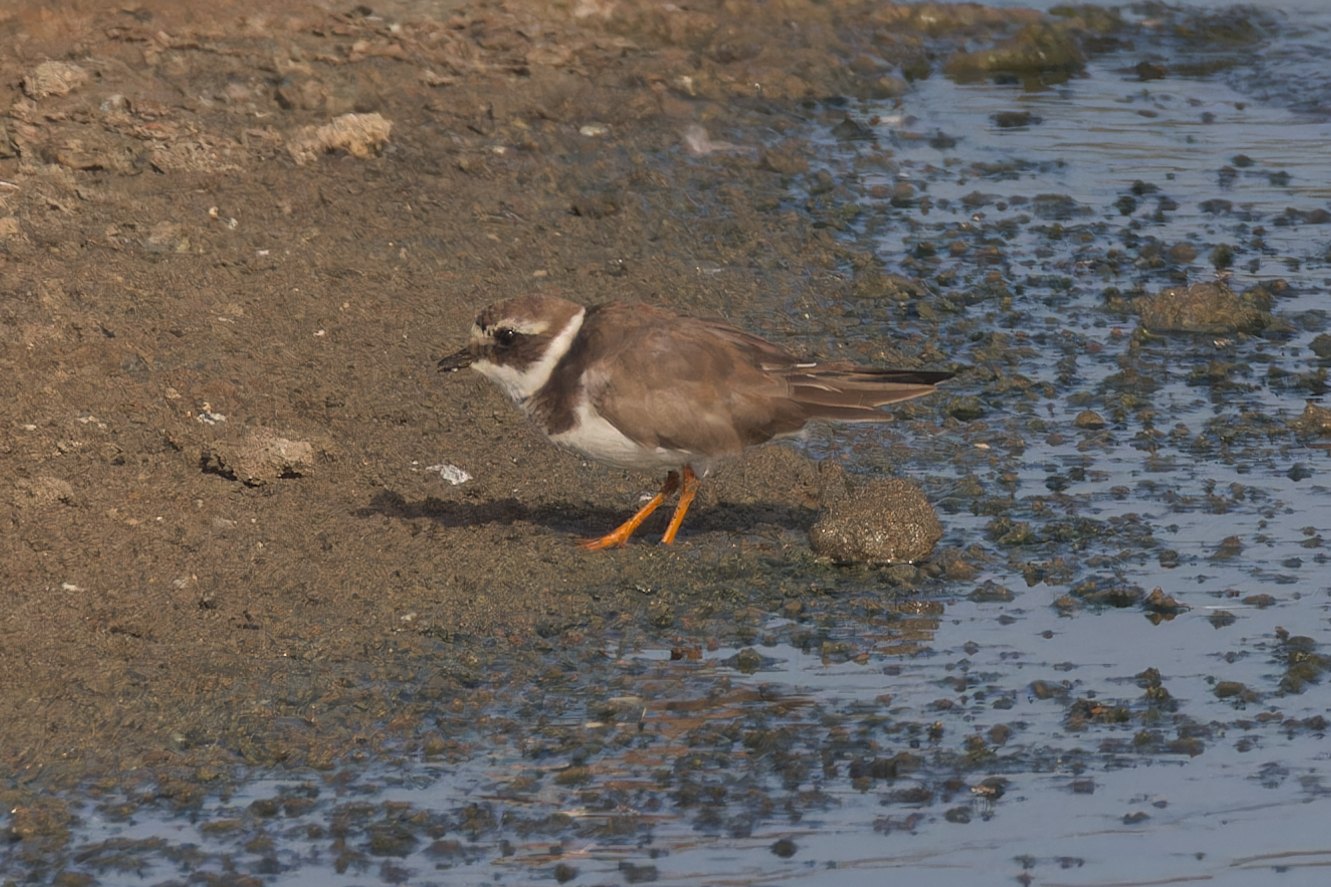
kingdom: Animalia
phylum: Chordata
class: Aves
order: Charadriiformes
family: Charadriidae
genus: Charadrius
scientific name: Charadrius hiaticula
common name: Common ringed plover
